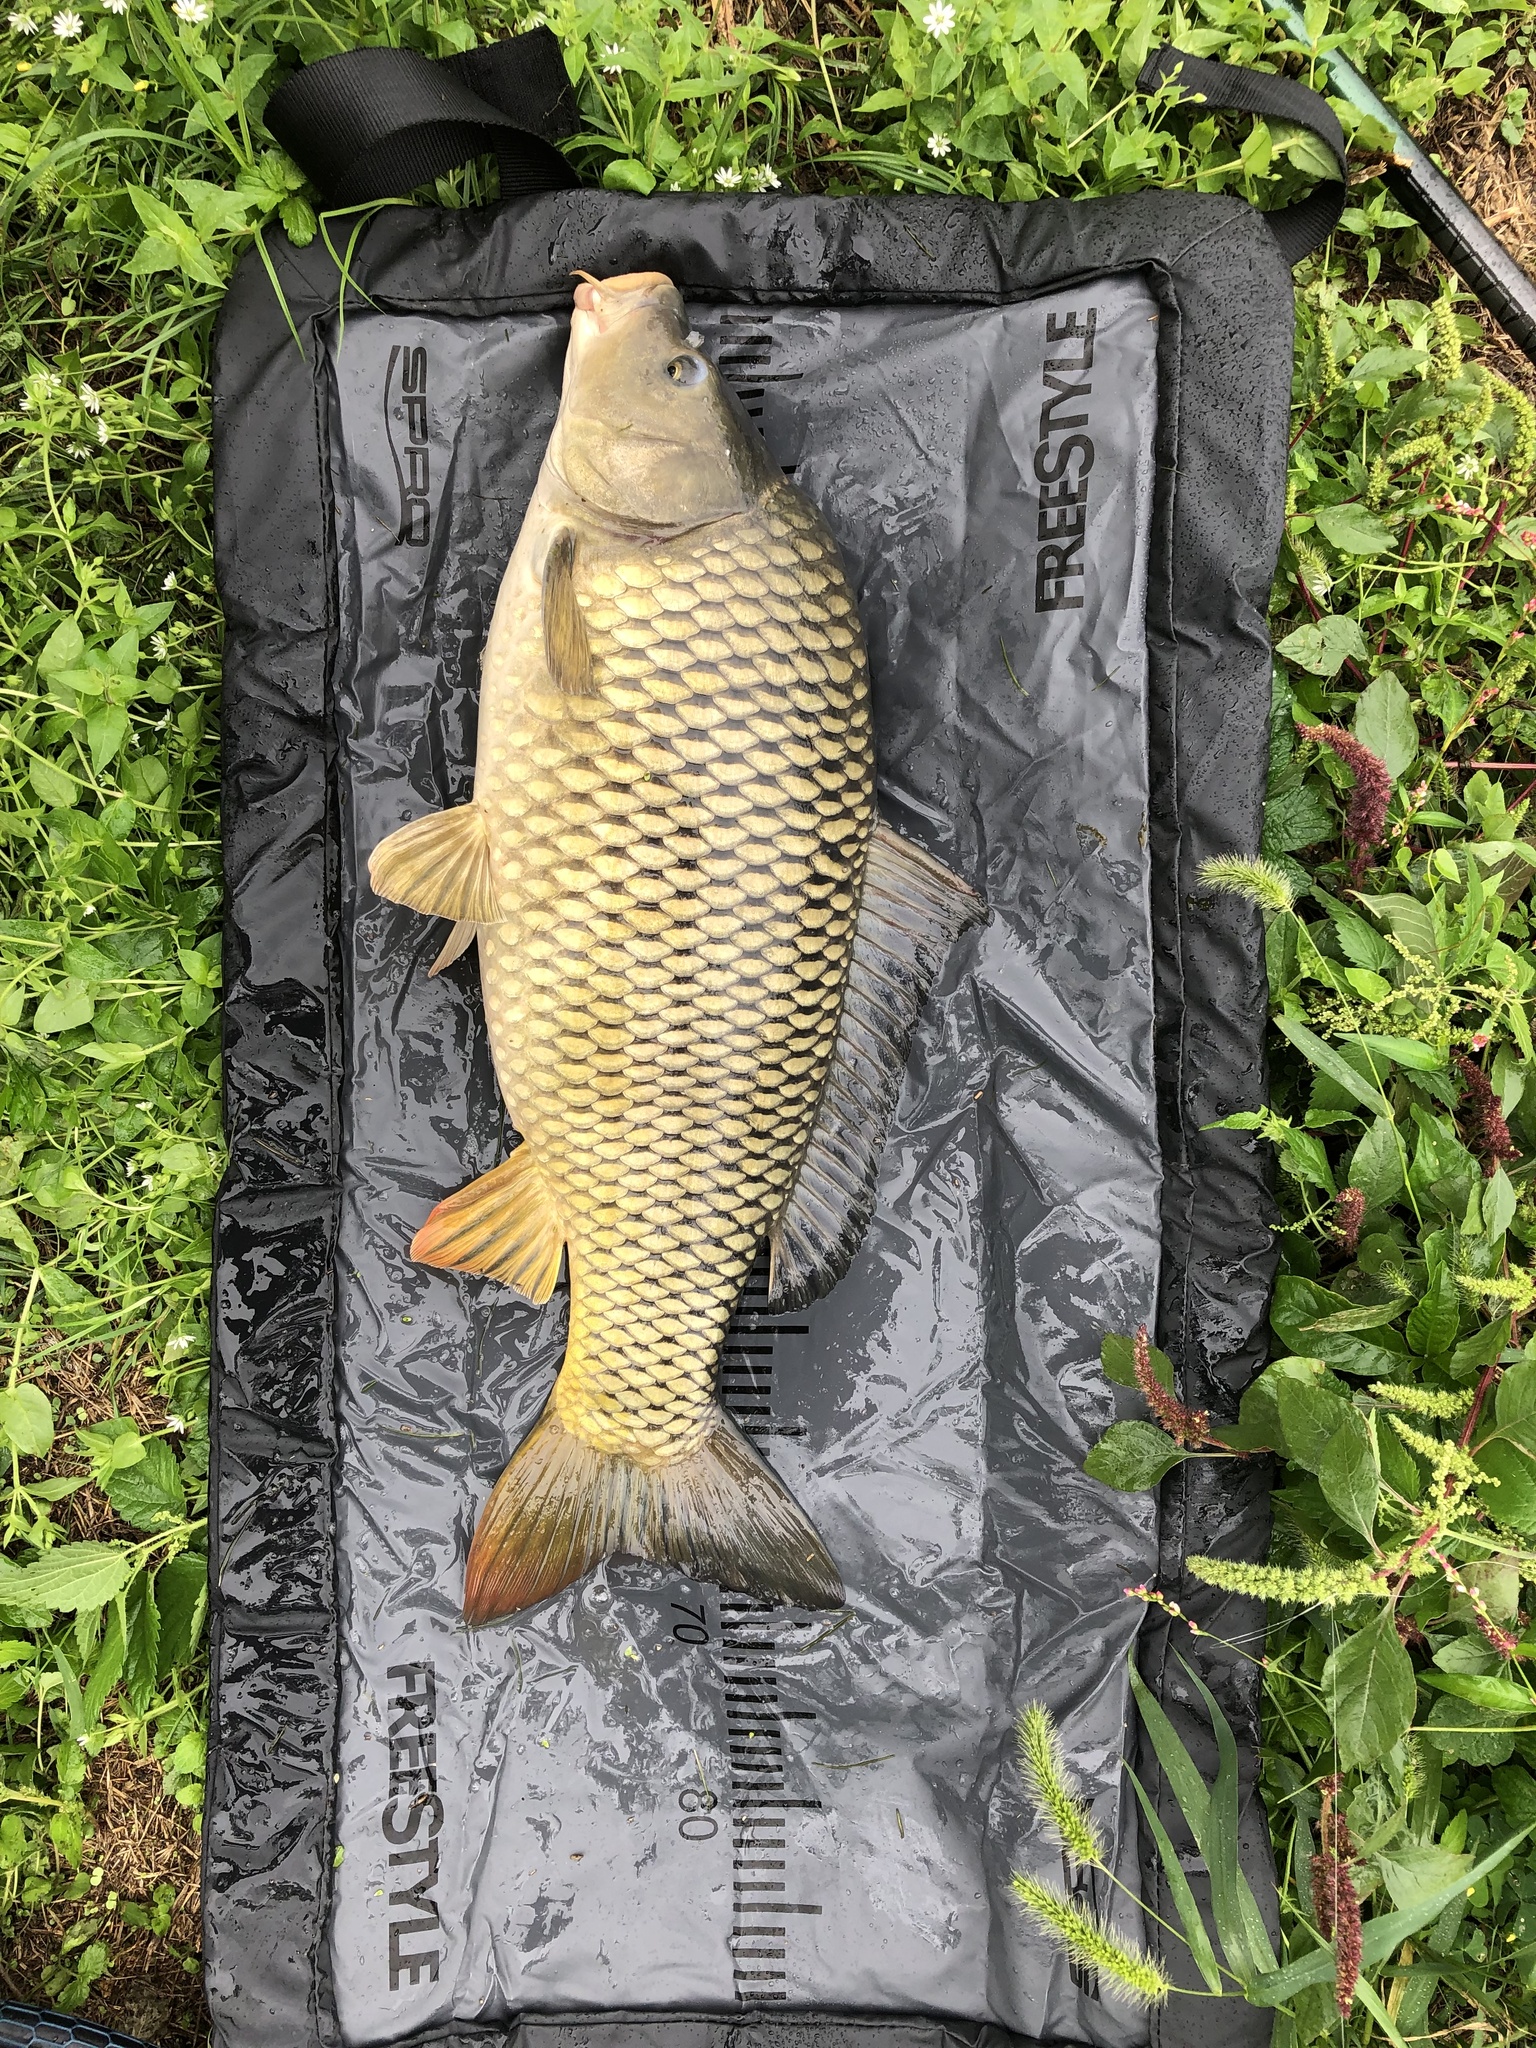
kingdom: Animalia
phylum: Chordata
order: Cypriniformes
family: Cyprinidae
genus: Cyprinus
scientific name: Cyprinus carpio
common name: Common carp
